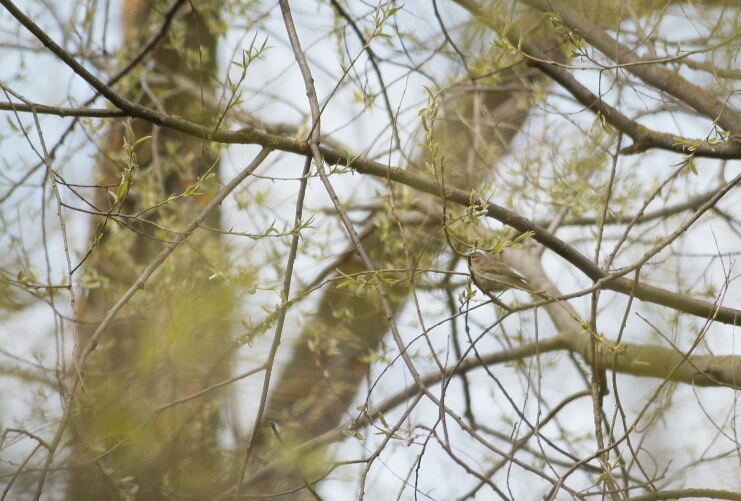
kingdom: Animalia
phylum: Chordata
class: Aves
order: Passeriformes
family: Phylloscopidae
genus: Phylloscopus
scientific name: Phylloscopus collybita
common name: Common chiffchaff
